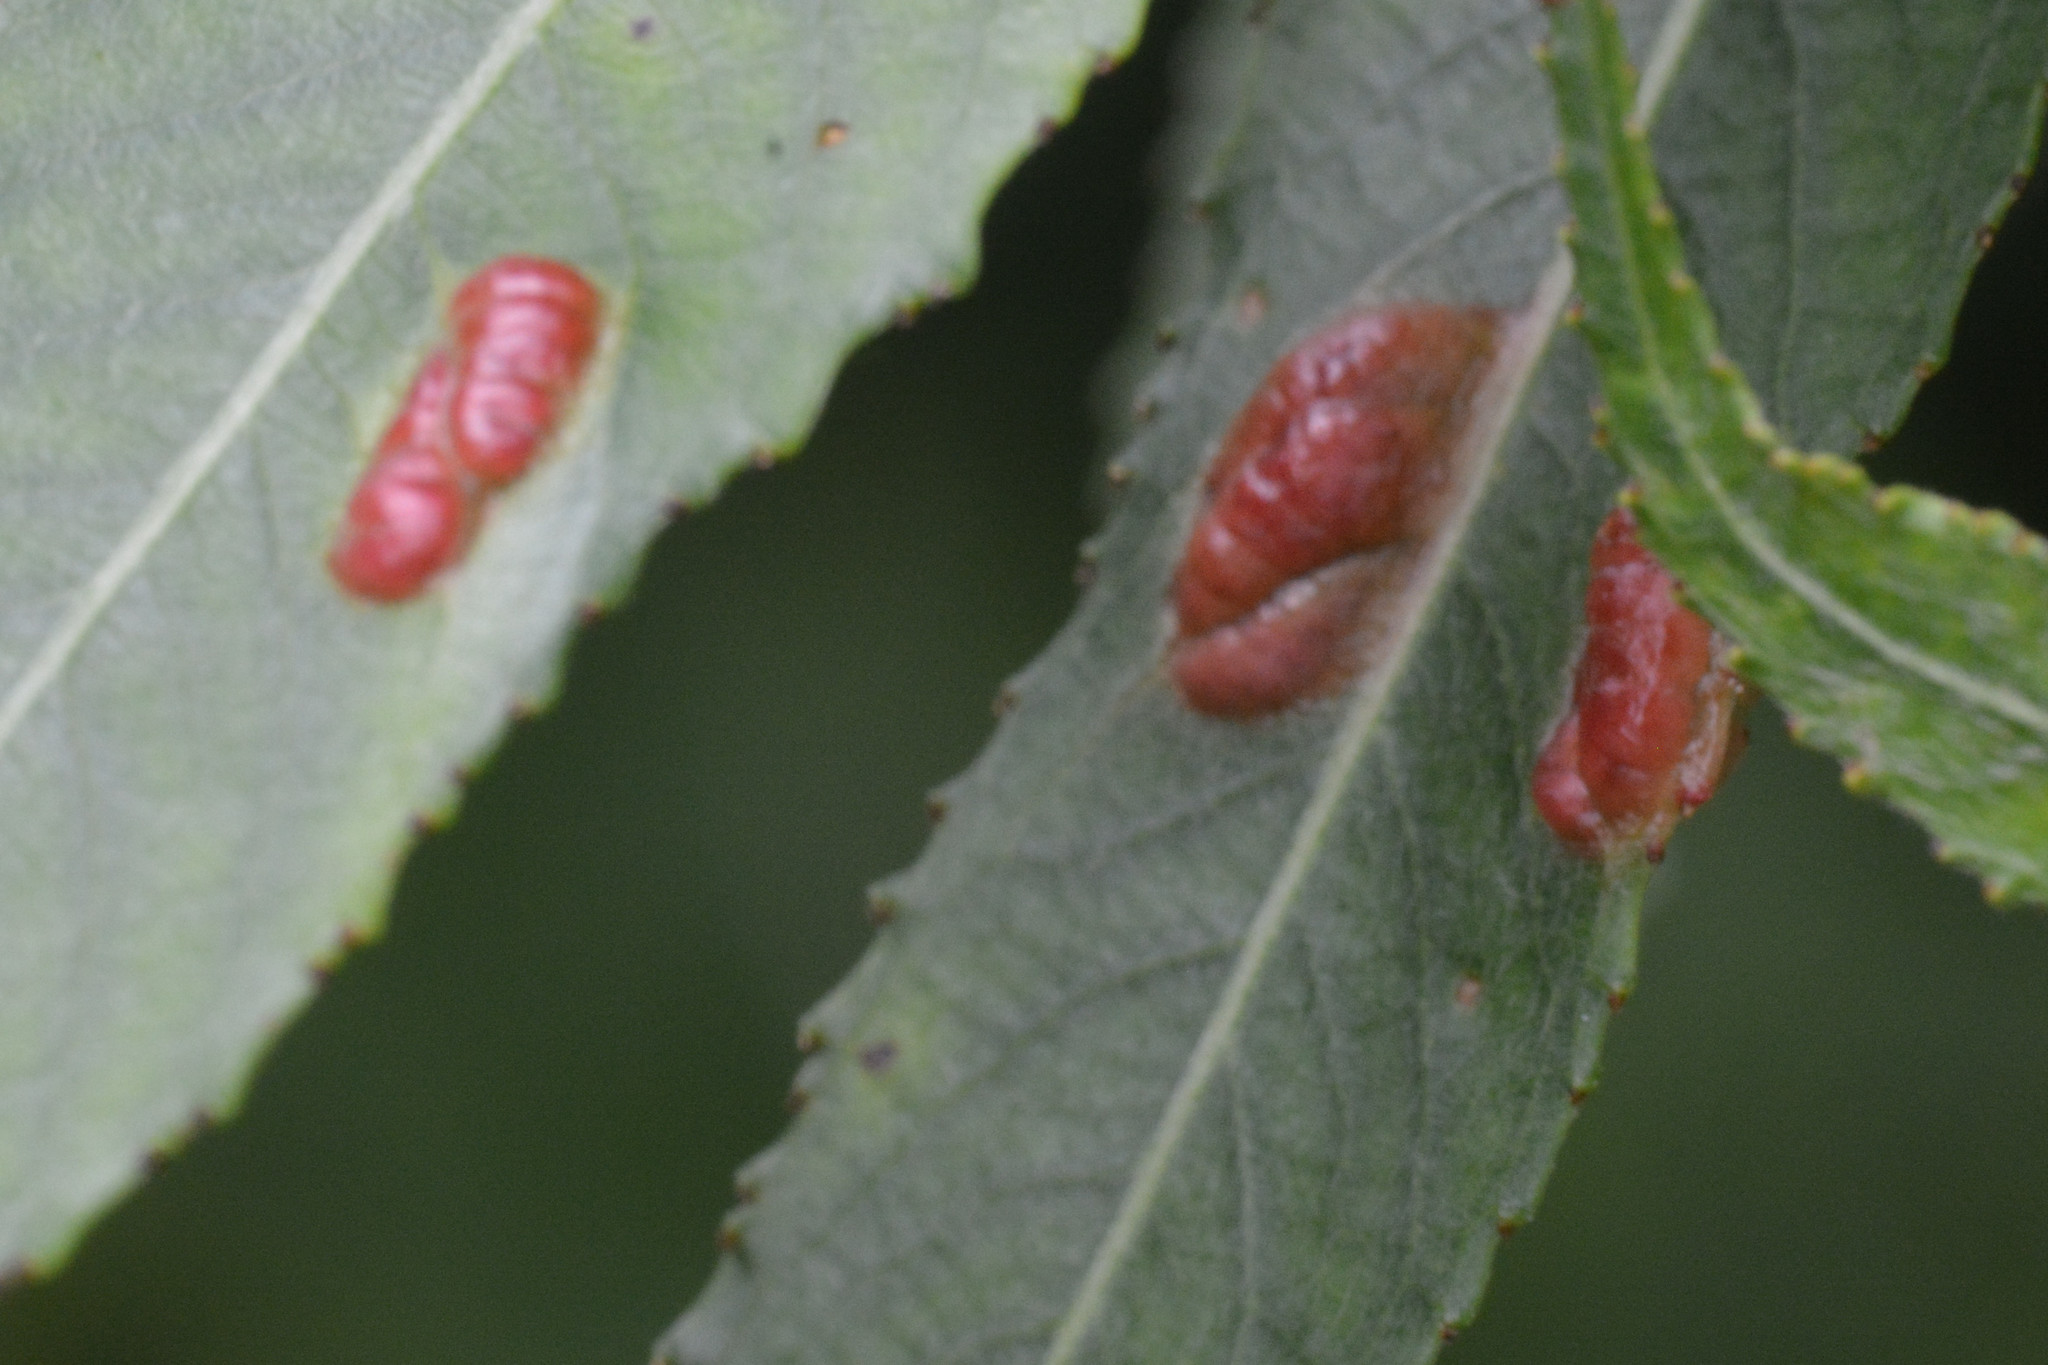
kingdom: Animalia
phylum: Arthropoda
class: Insecta
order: Hymenoptera
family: Tenthredinidae
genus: Pontania
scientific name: Pontania proxima
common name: Common sawfly
